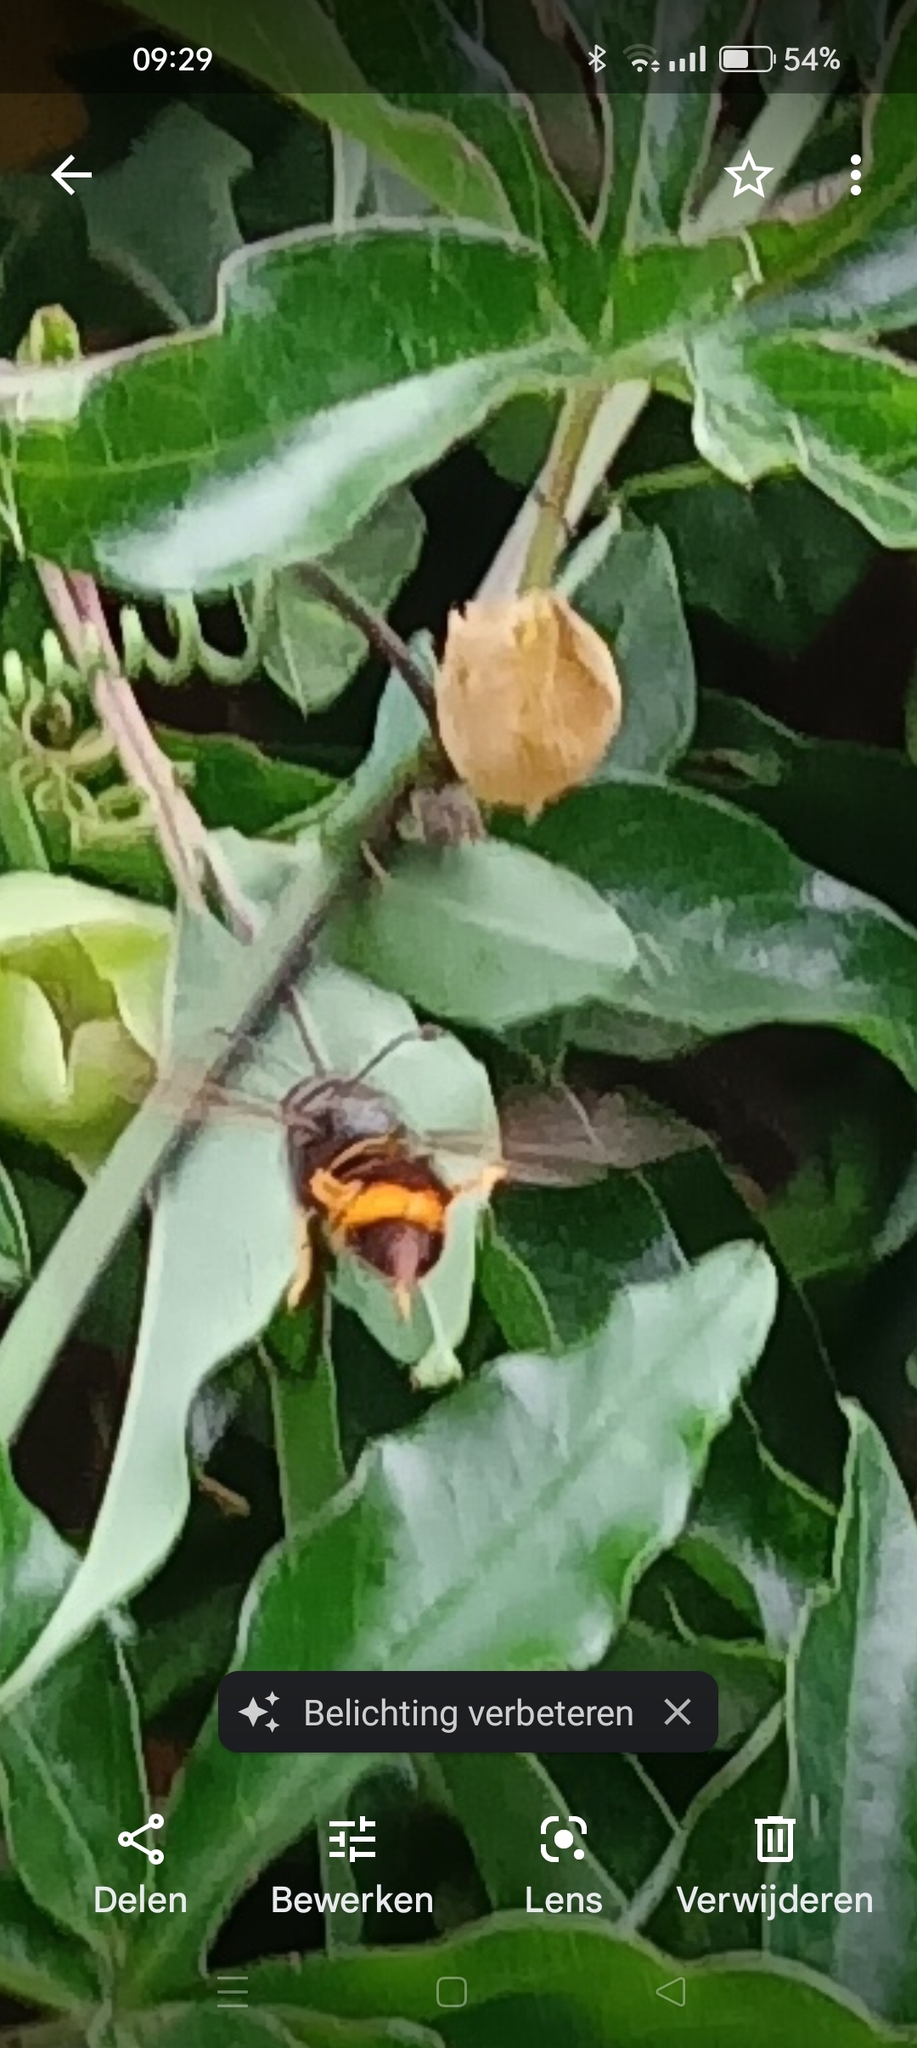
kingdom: Animalia
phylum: Arthropoda
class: Insecta
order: Hymenoptera
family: Vespidae
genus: Vespa
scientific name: Vespa velutina
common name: Asian hornet
